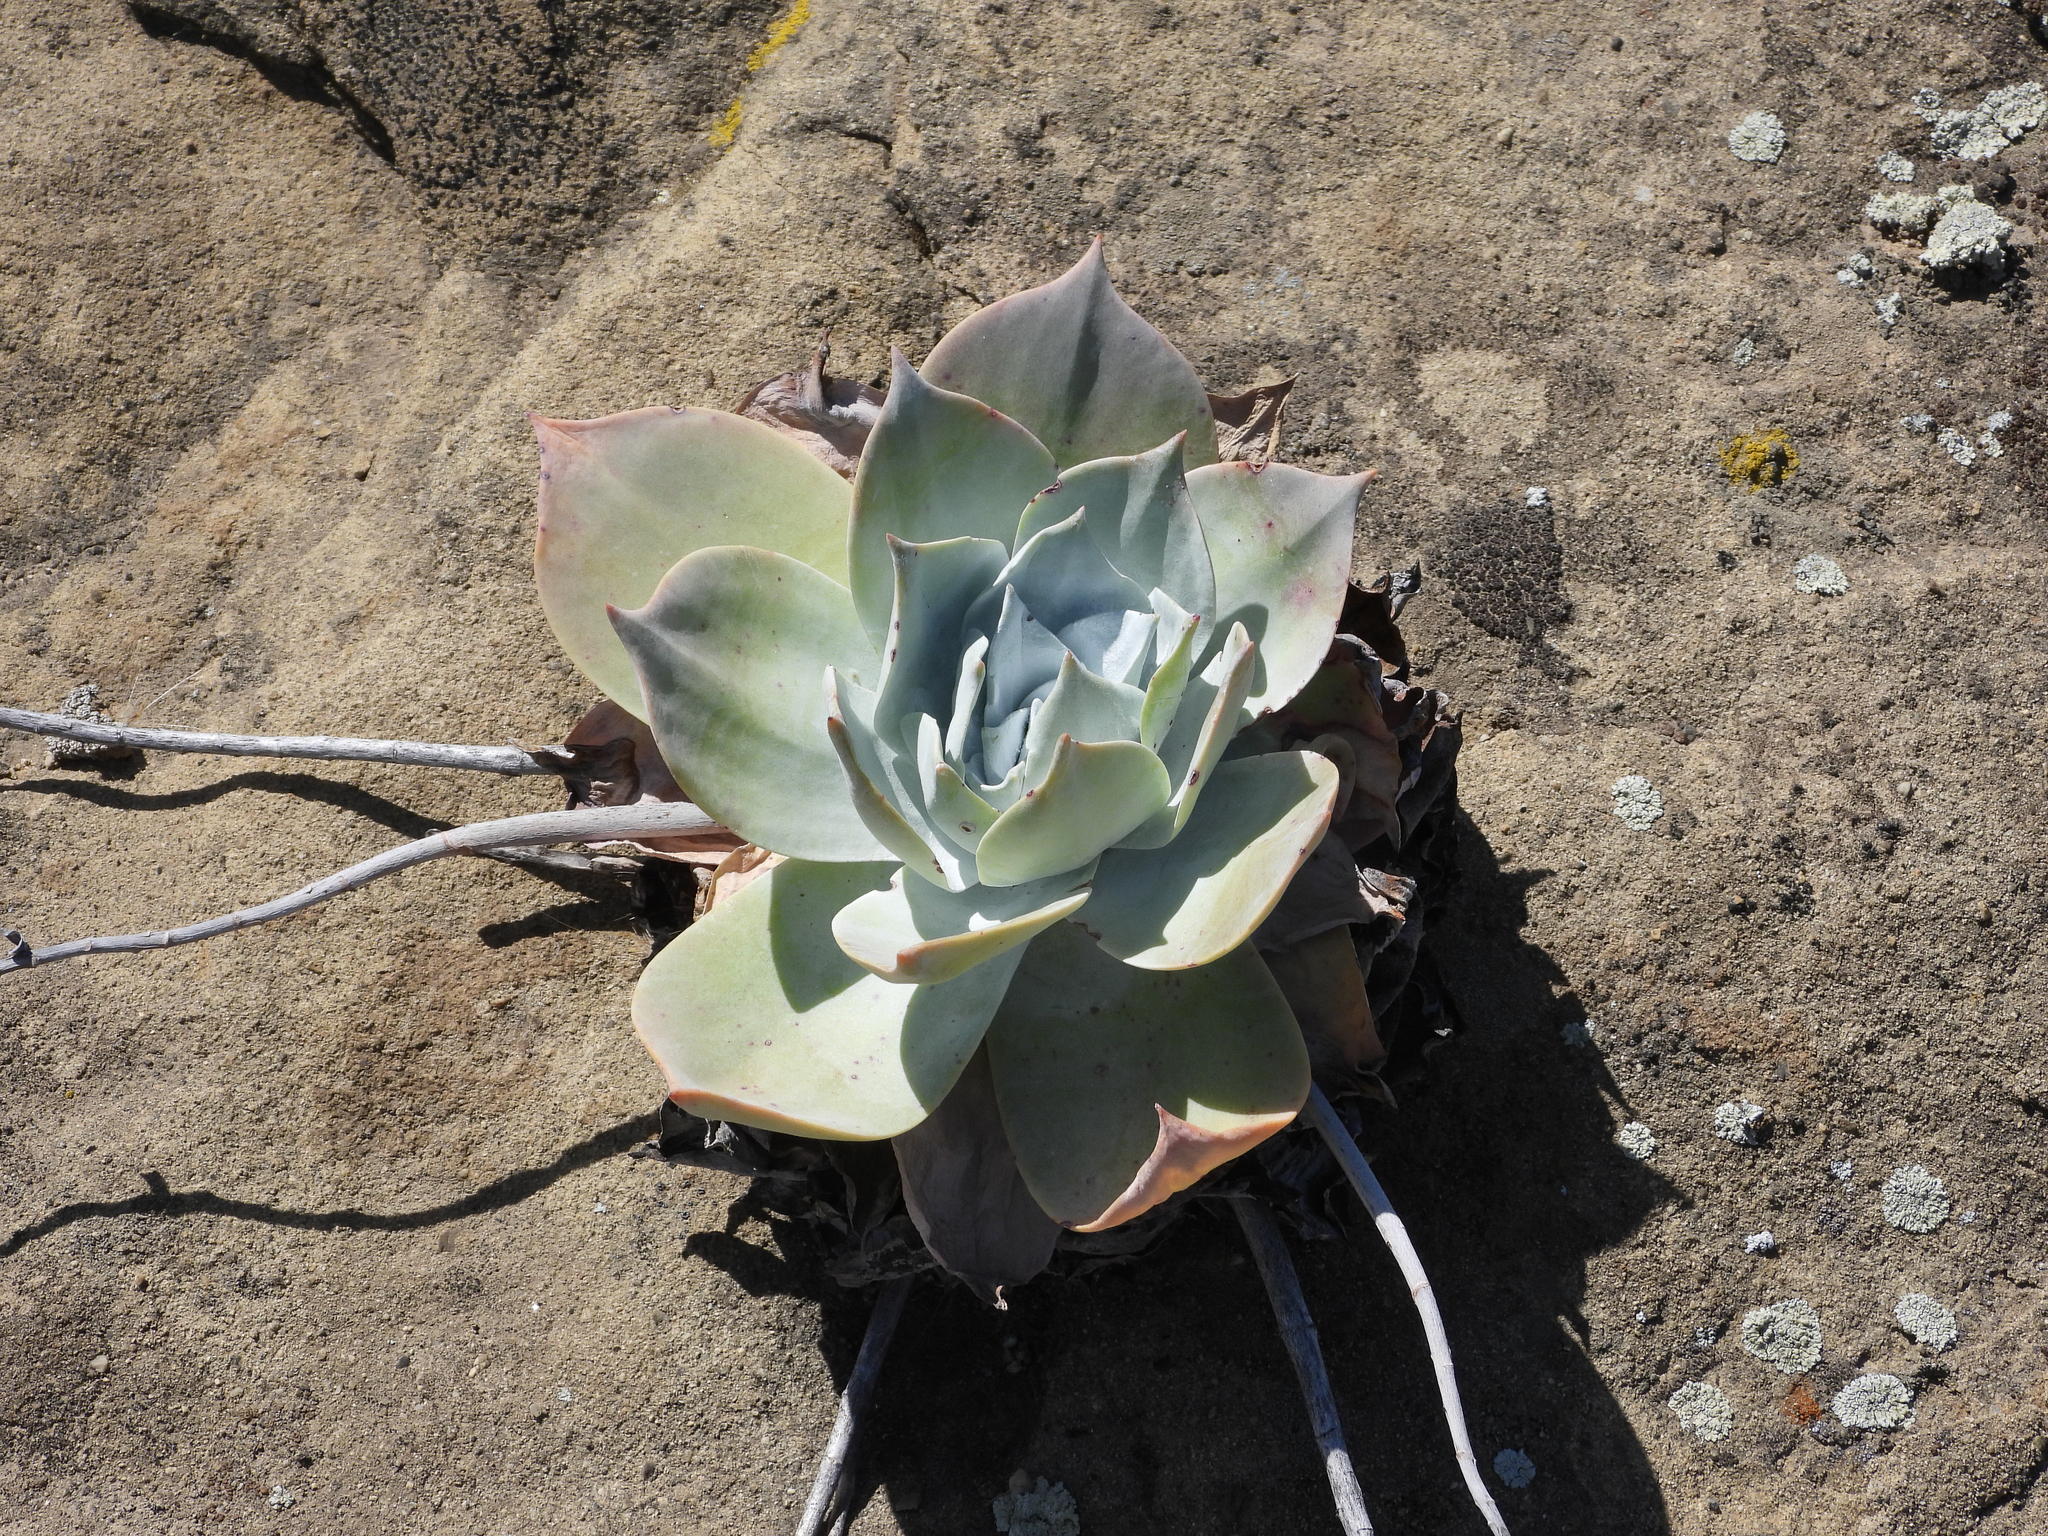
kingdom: Plantae
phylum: Tracheophyta
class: Magnoliopsida
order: Saxifragales
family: Crassulaceae
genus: Dudleya
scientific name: Dudleya pulverulenta
